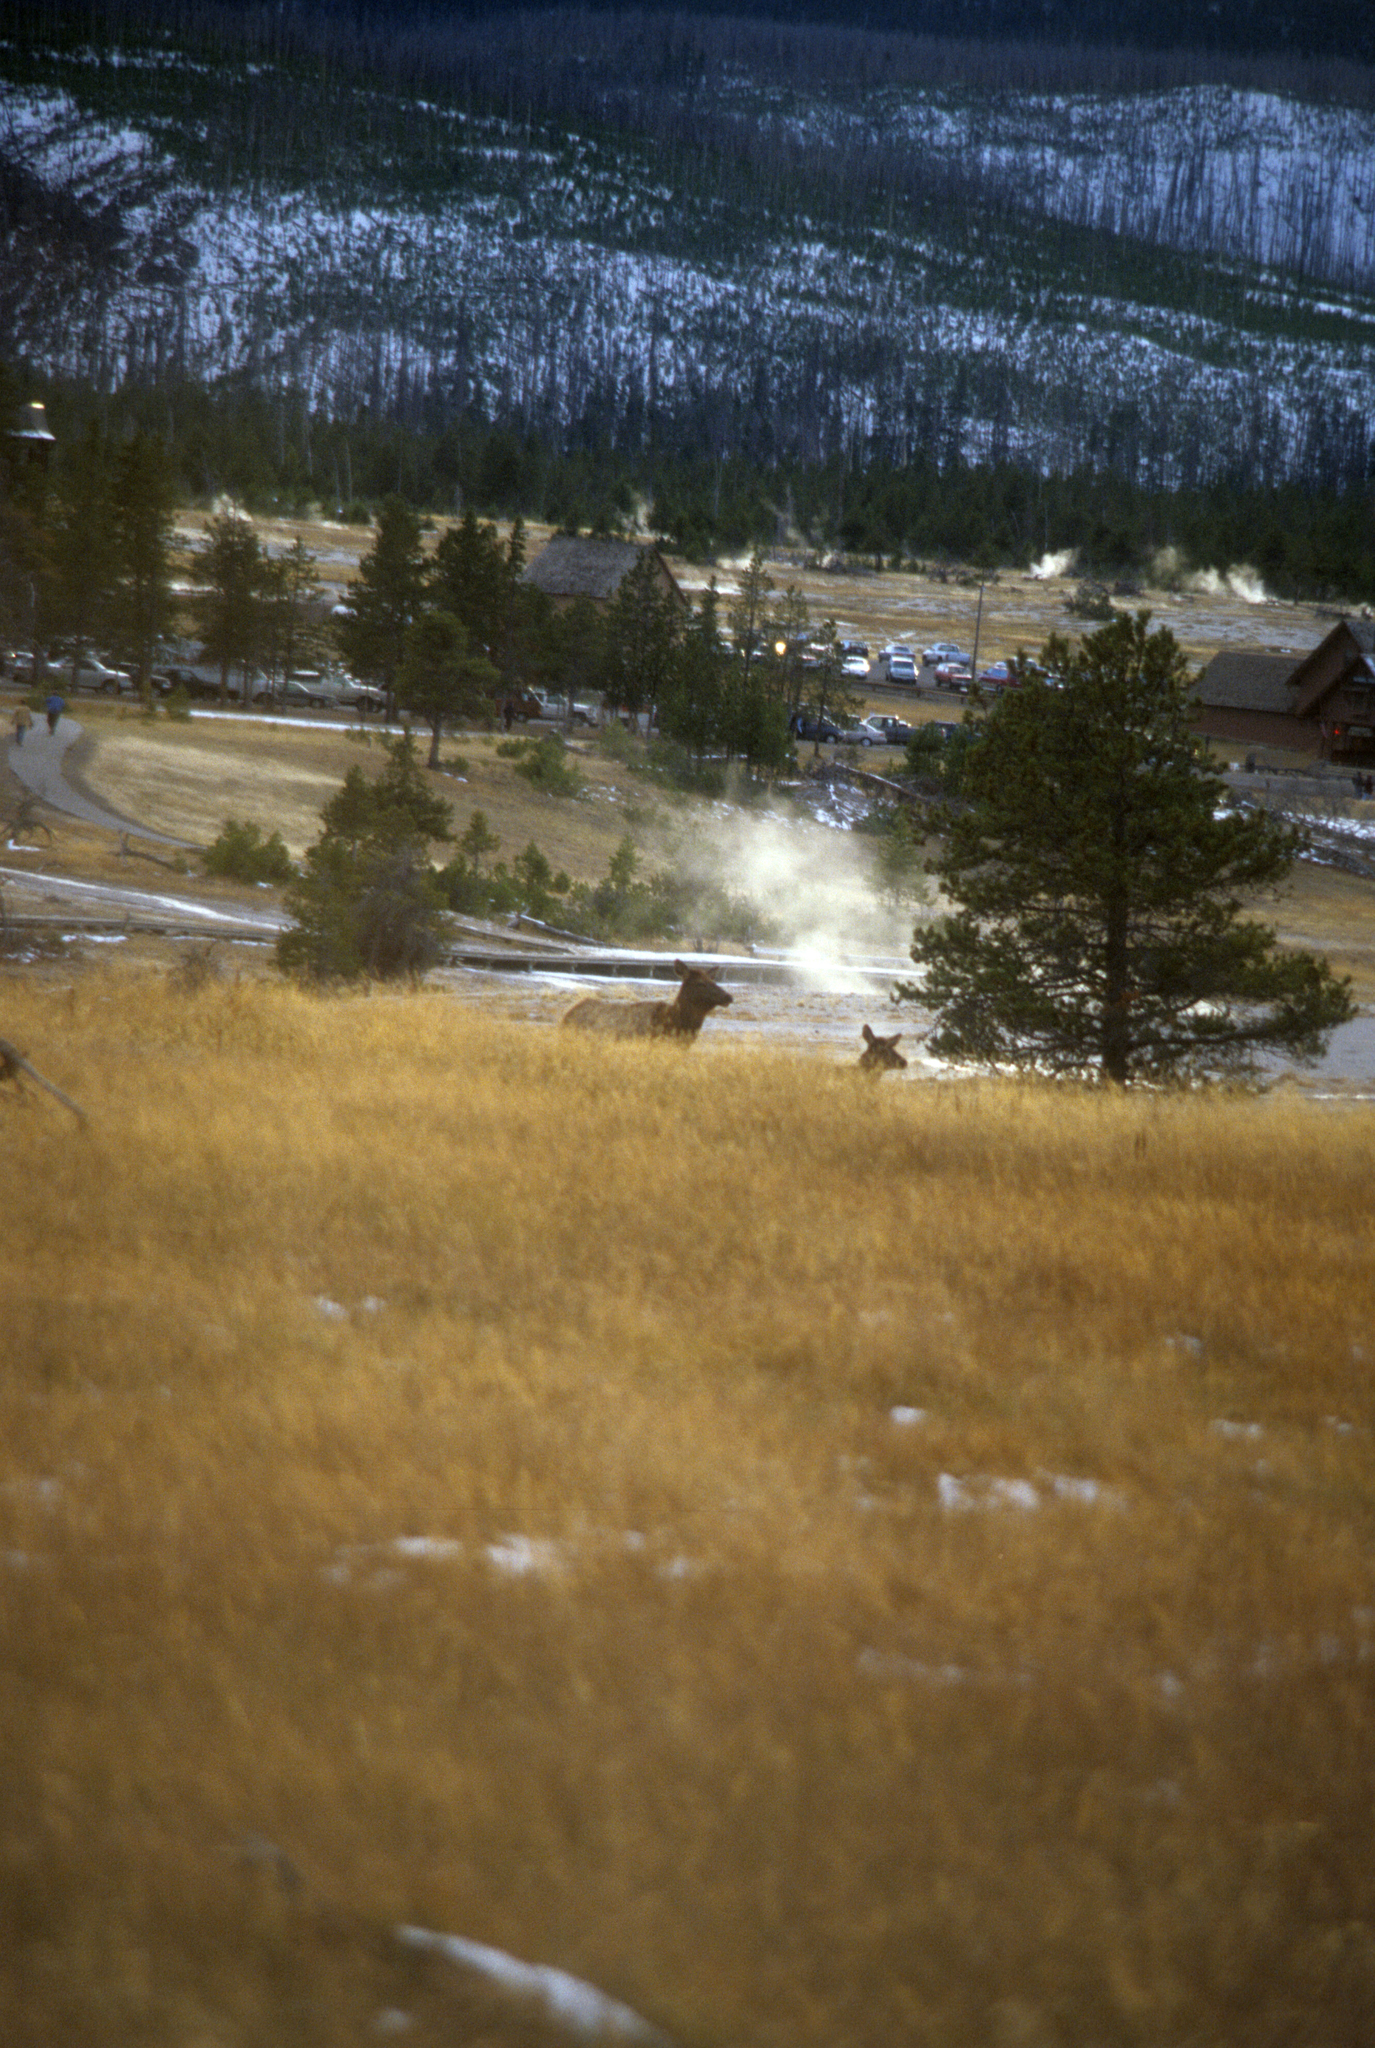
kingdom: Animalia
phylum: Chordata
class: Mammalia
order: Artiodactyla
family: Cervidae
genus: Cervus
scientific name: Cervus elaphus
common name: Red deer
